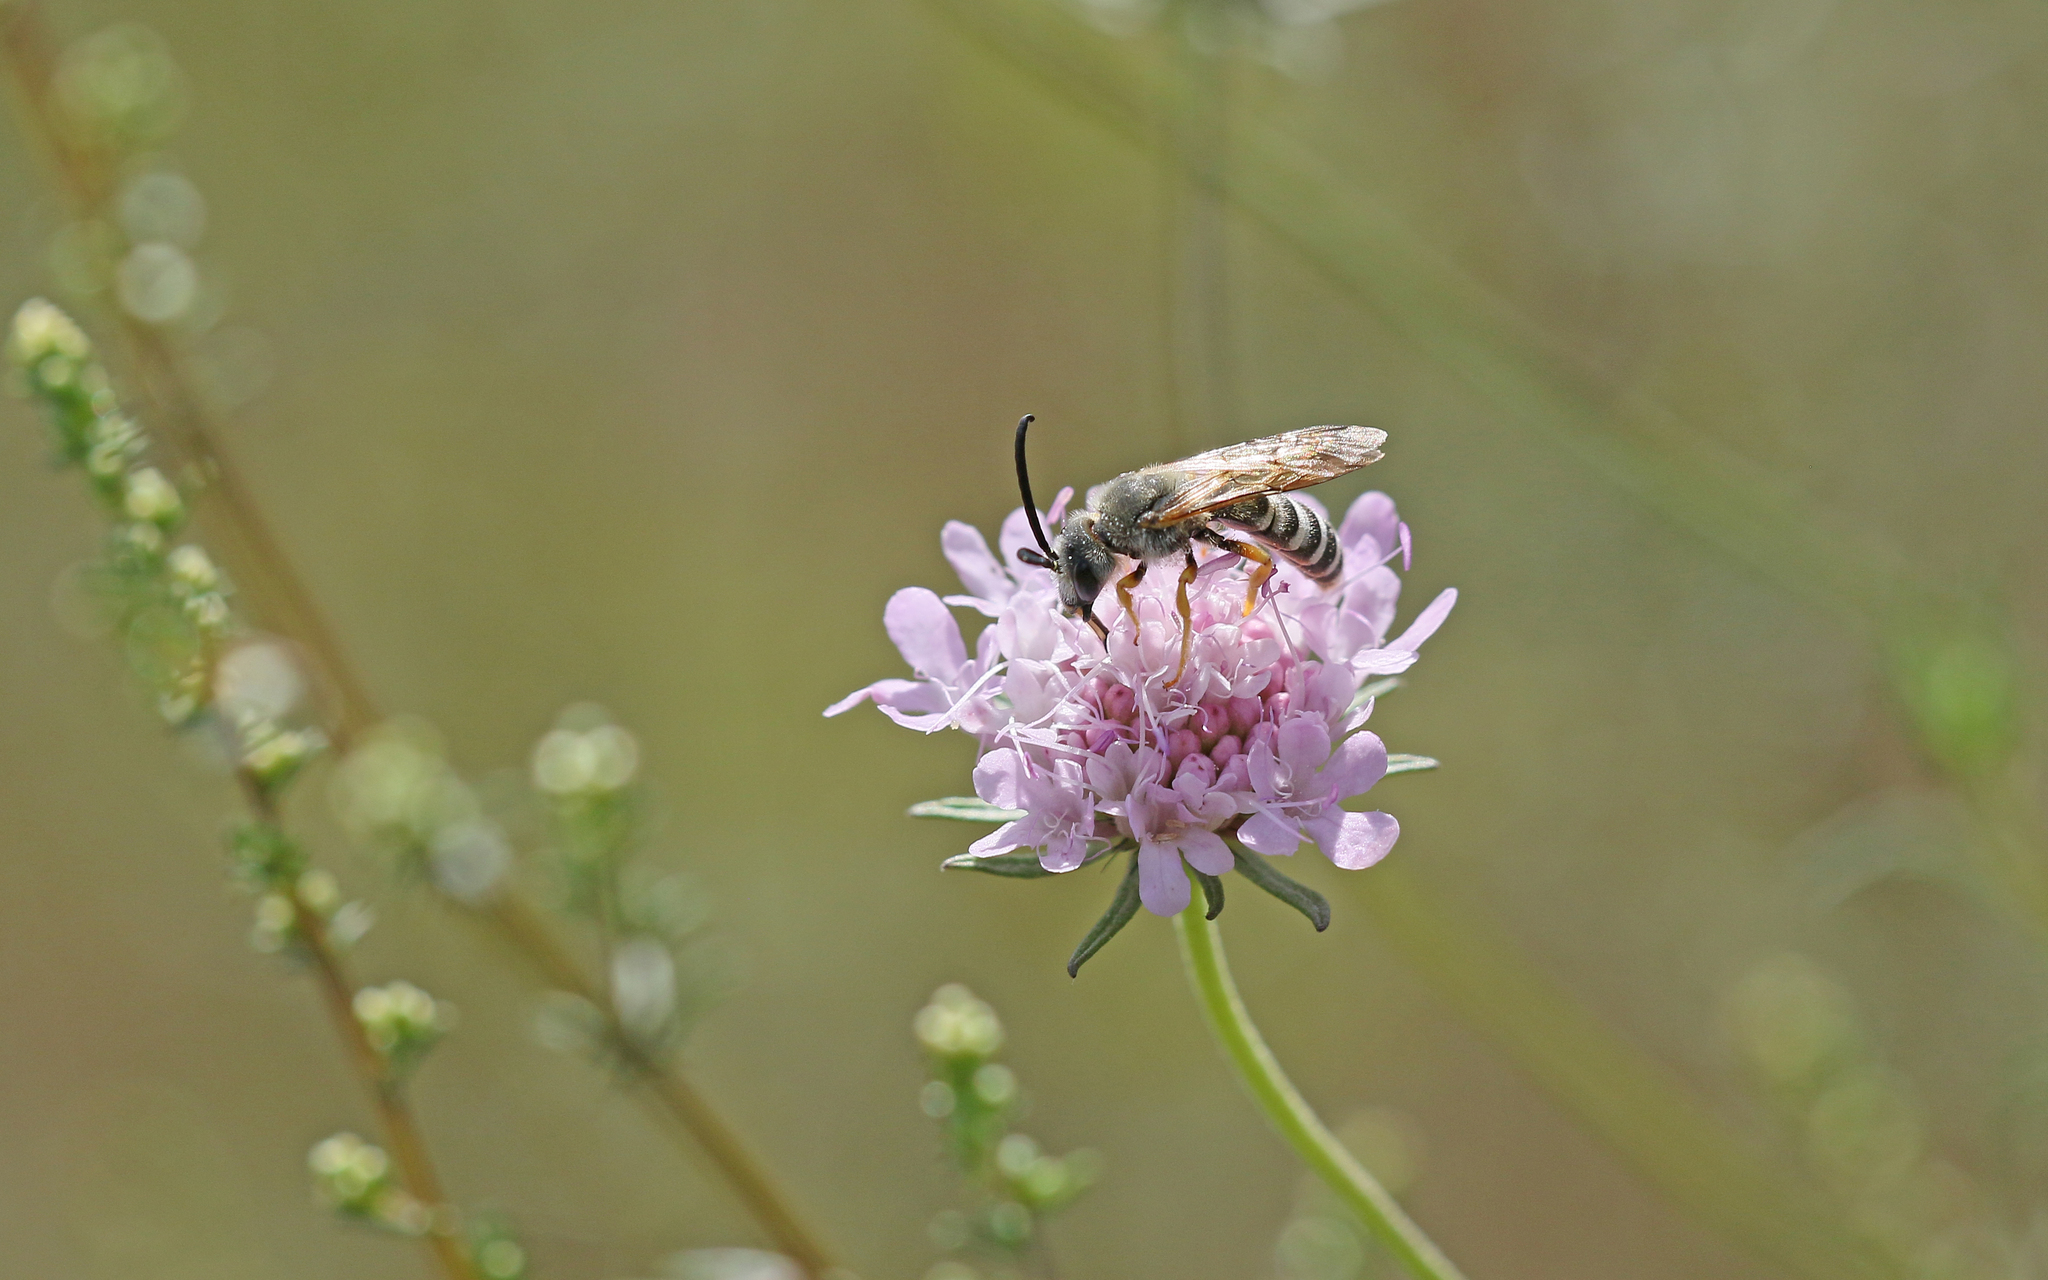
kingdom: Animalia
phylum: Arthropoda
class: Insecta
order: Hymenoptera
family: Halictidae
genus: Halictus
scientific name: Halictus scabiosae
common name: Great banded furrow bee
